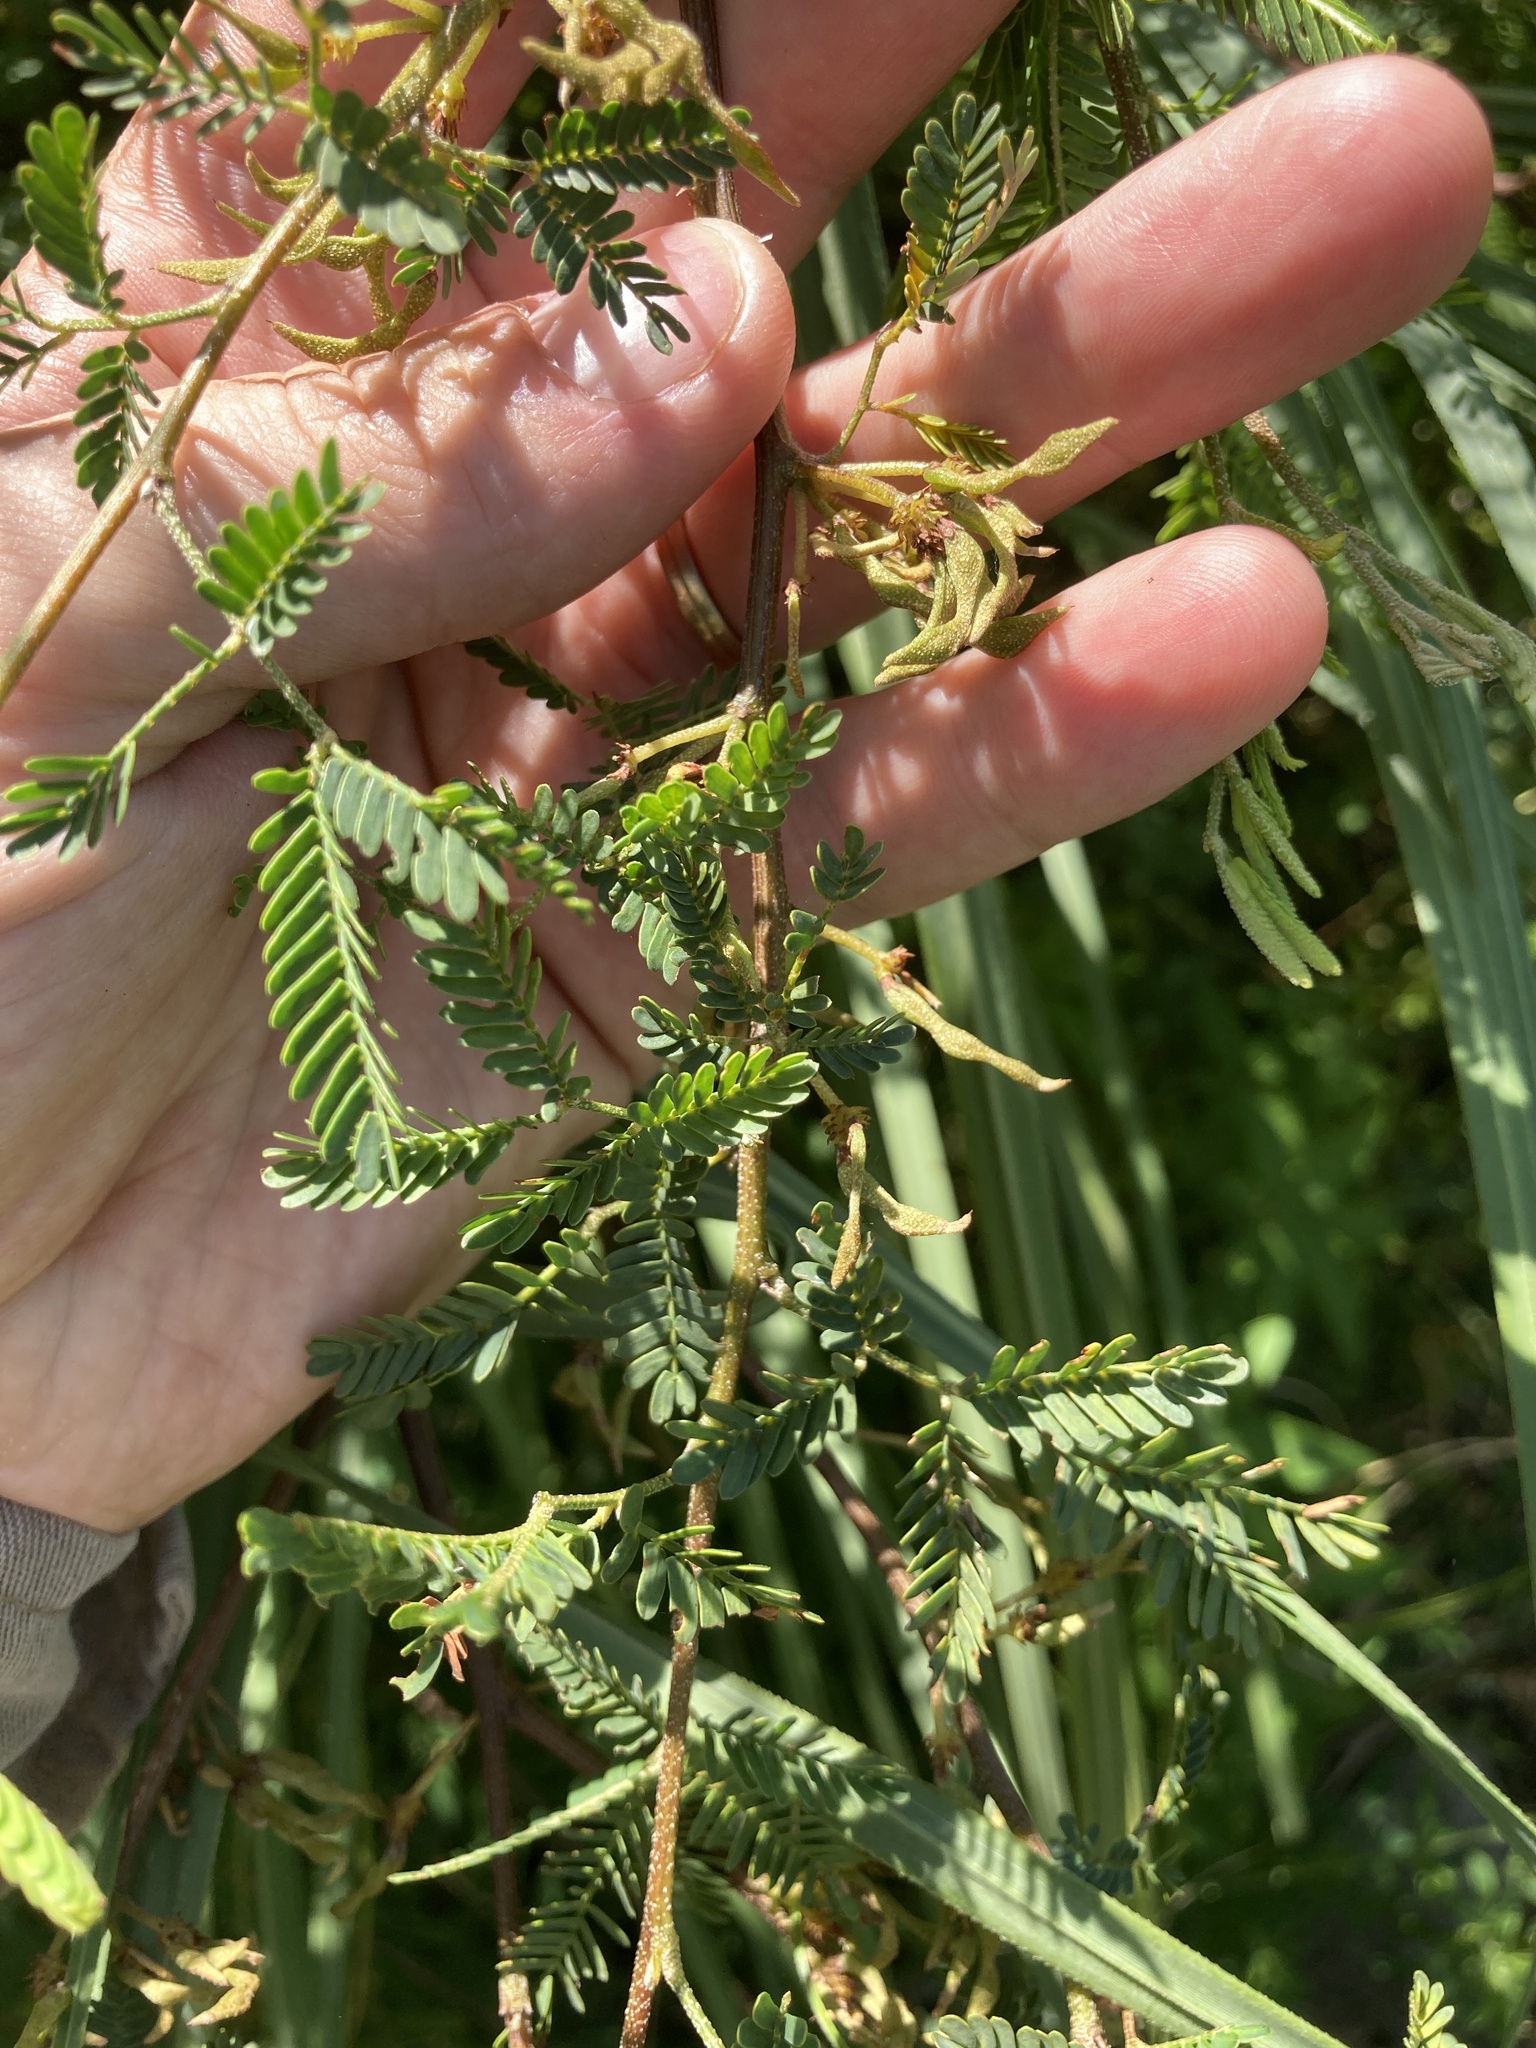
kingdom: Plantae
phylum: Tracheophyta
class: Magnoliopsida
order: Fabales
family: Fabaceae
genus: Mimosa
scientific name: Mimosa bonplandii
